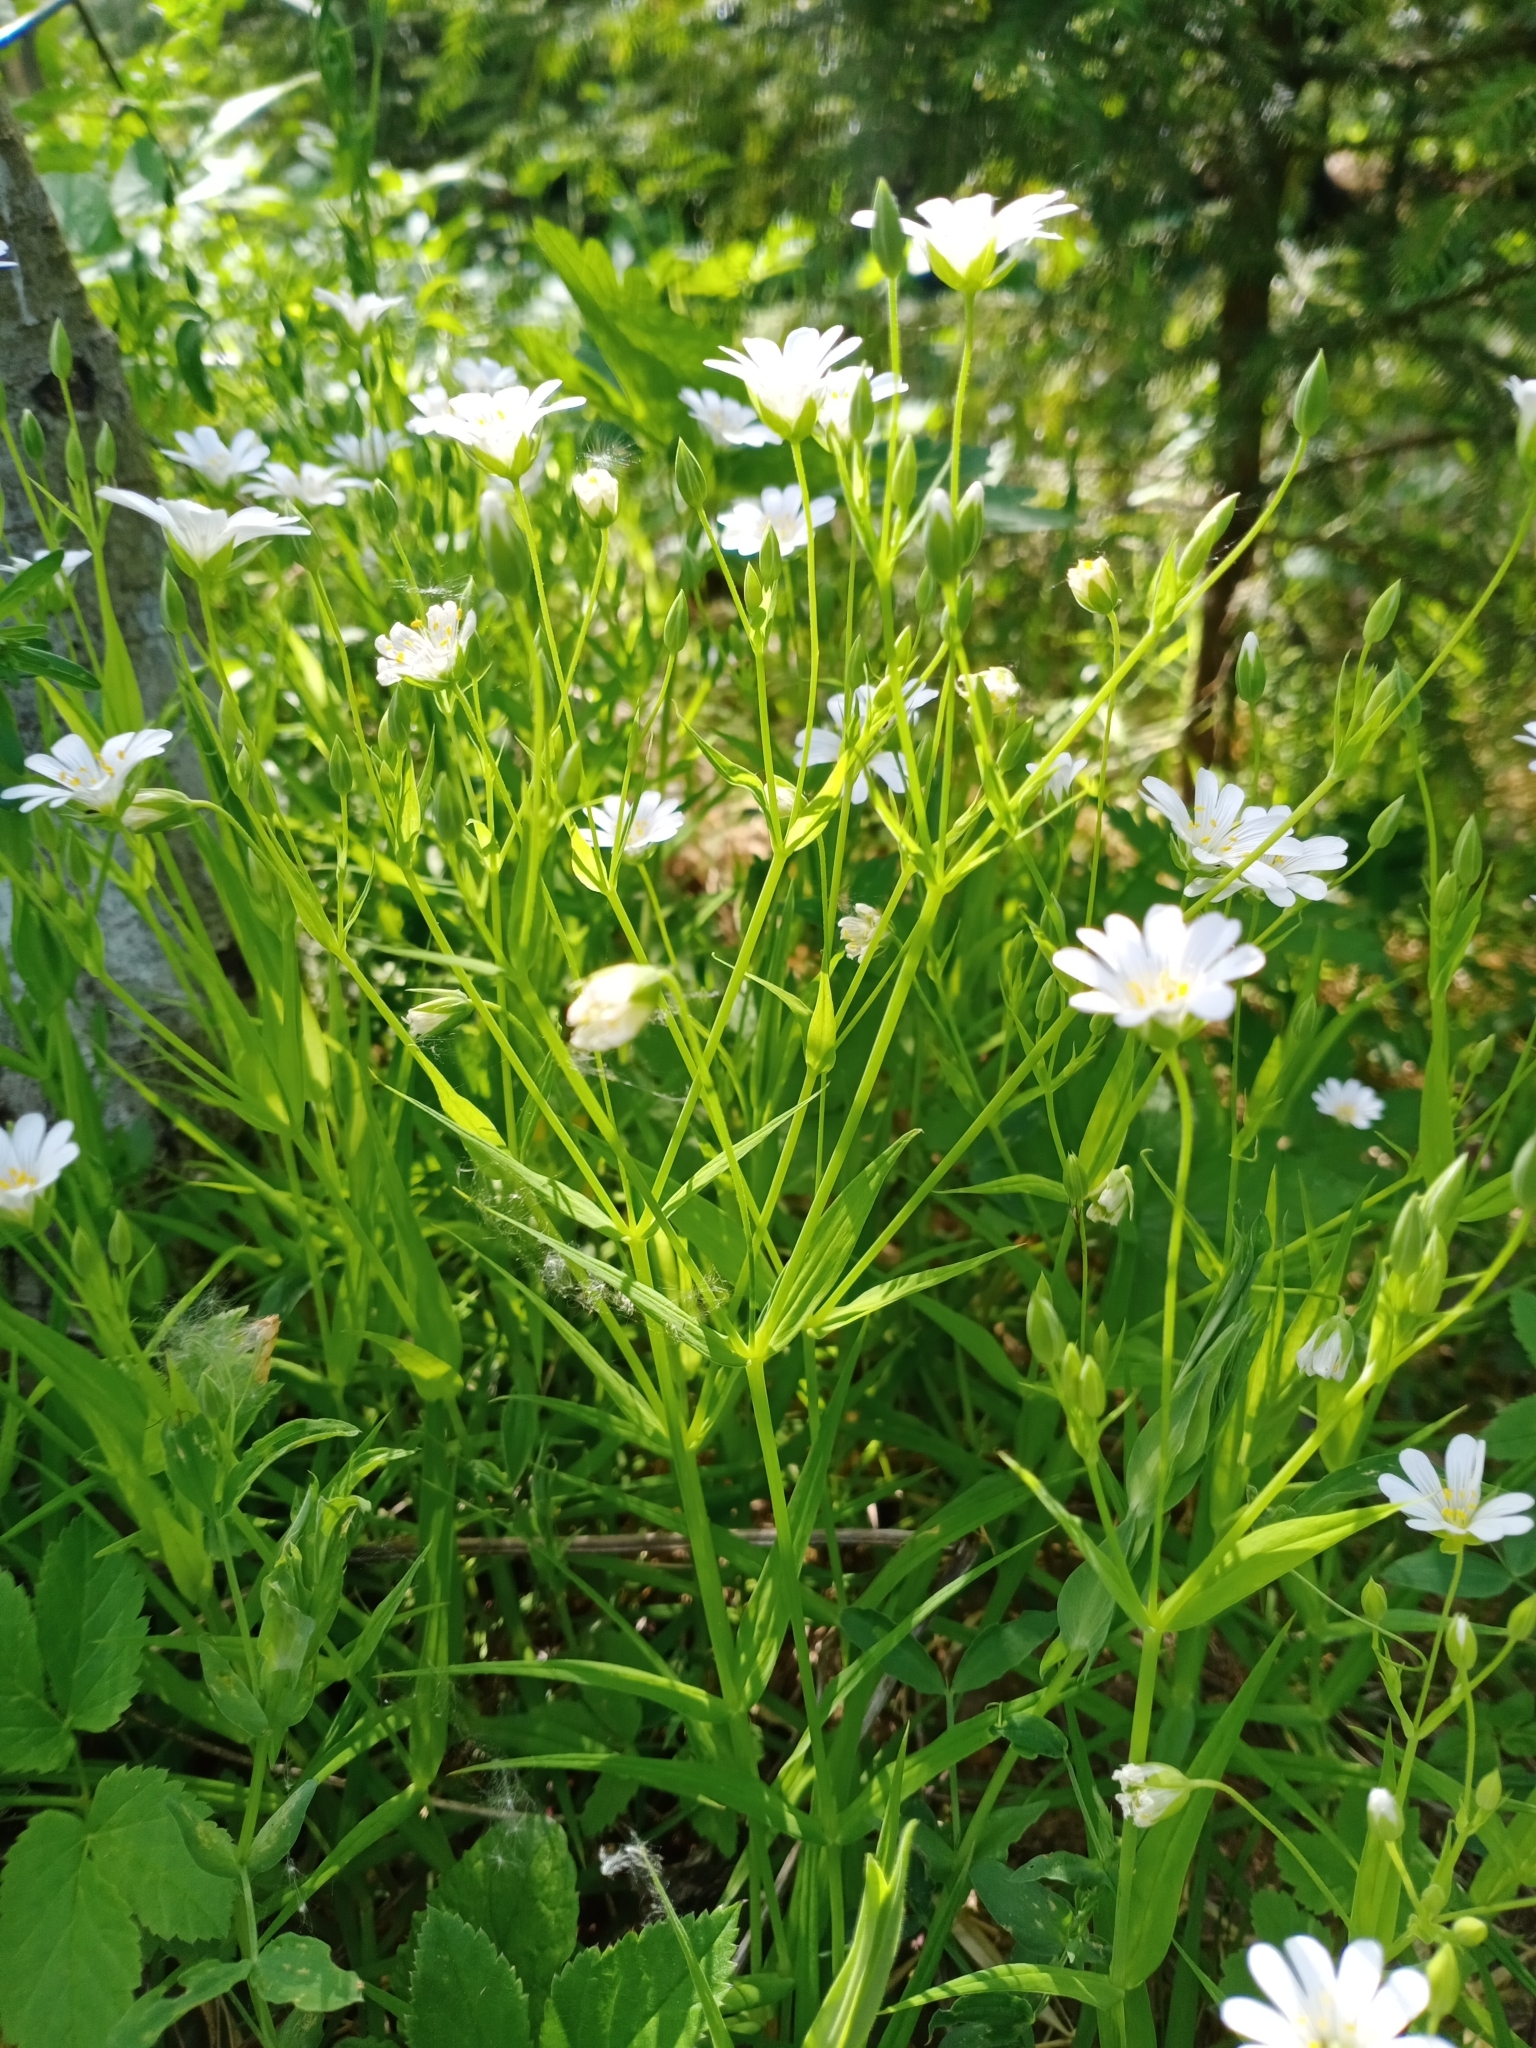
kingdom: Plantae
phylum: Tracheophyta
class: Magnoliopsida
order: Caryophyllales
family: Caryophyllaceae
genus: Rabelera
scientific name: Rabelera holostea
